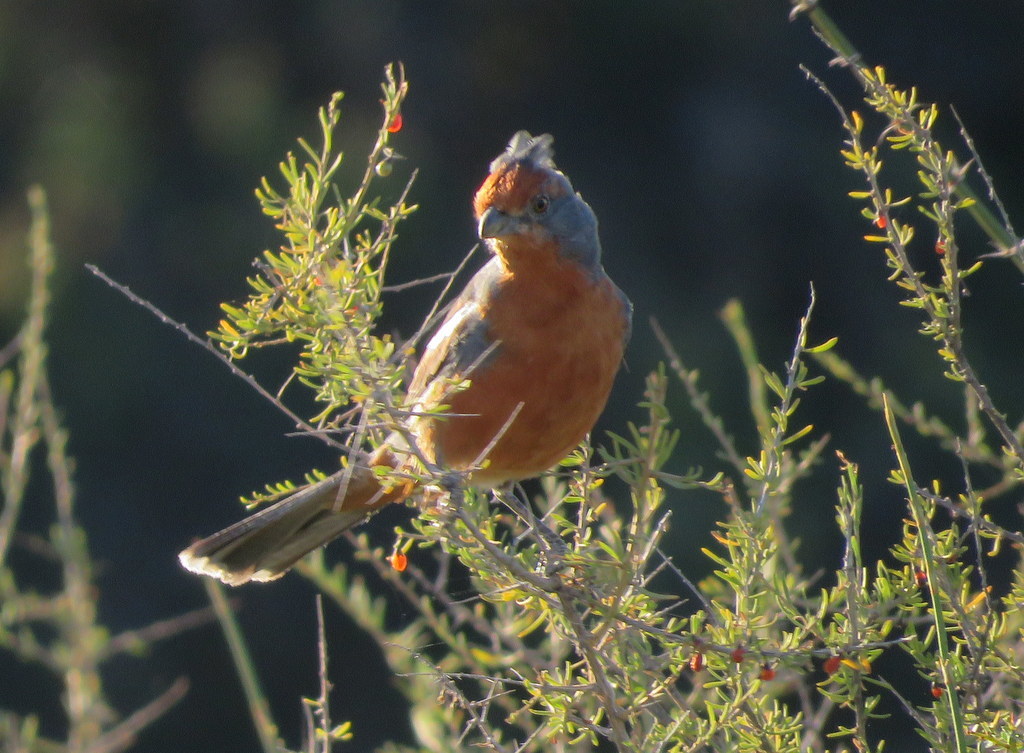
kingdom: Animalia
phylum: Chordata
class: Aves
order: Passeriformes
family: Cotingidae
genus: Phytotoma
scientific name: Phytotoma rutila
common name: White-tipped plantcutter
